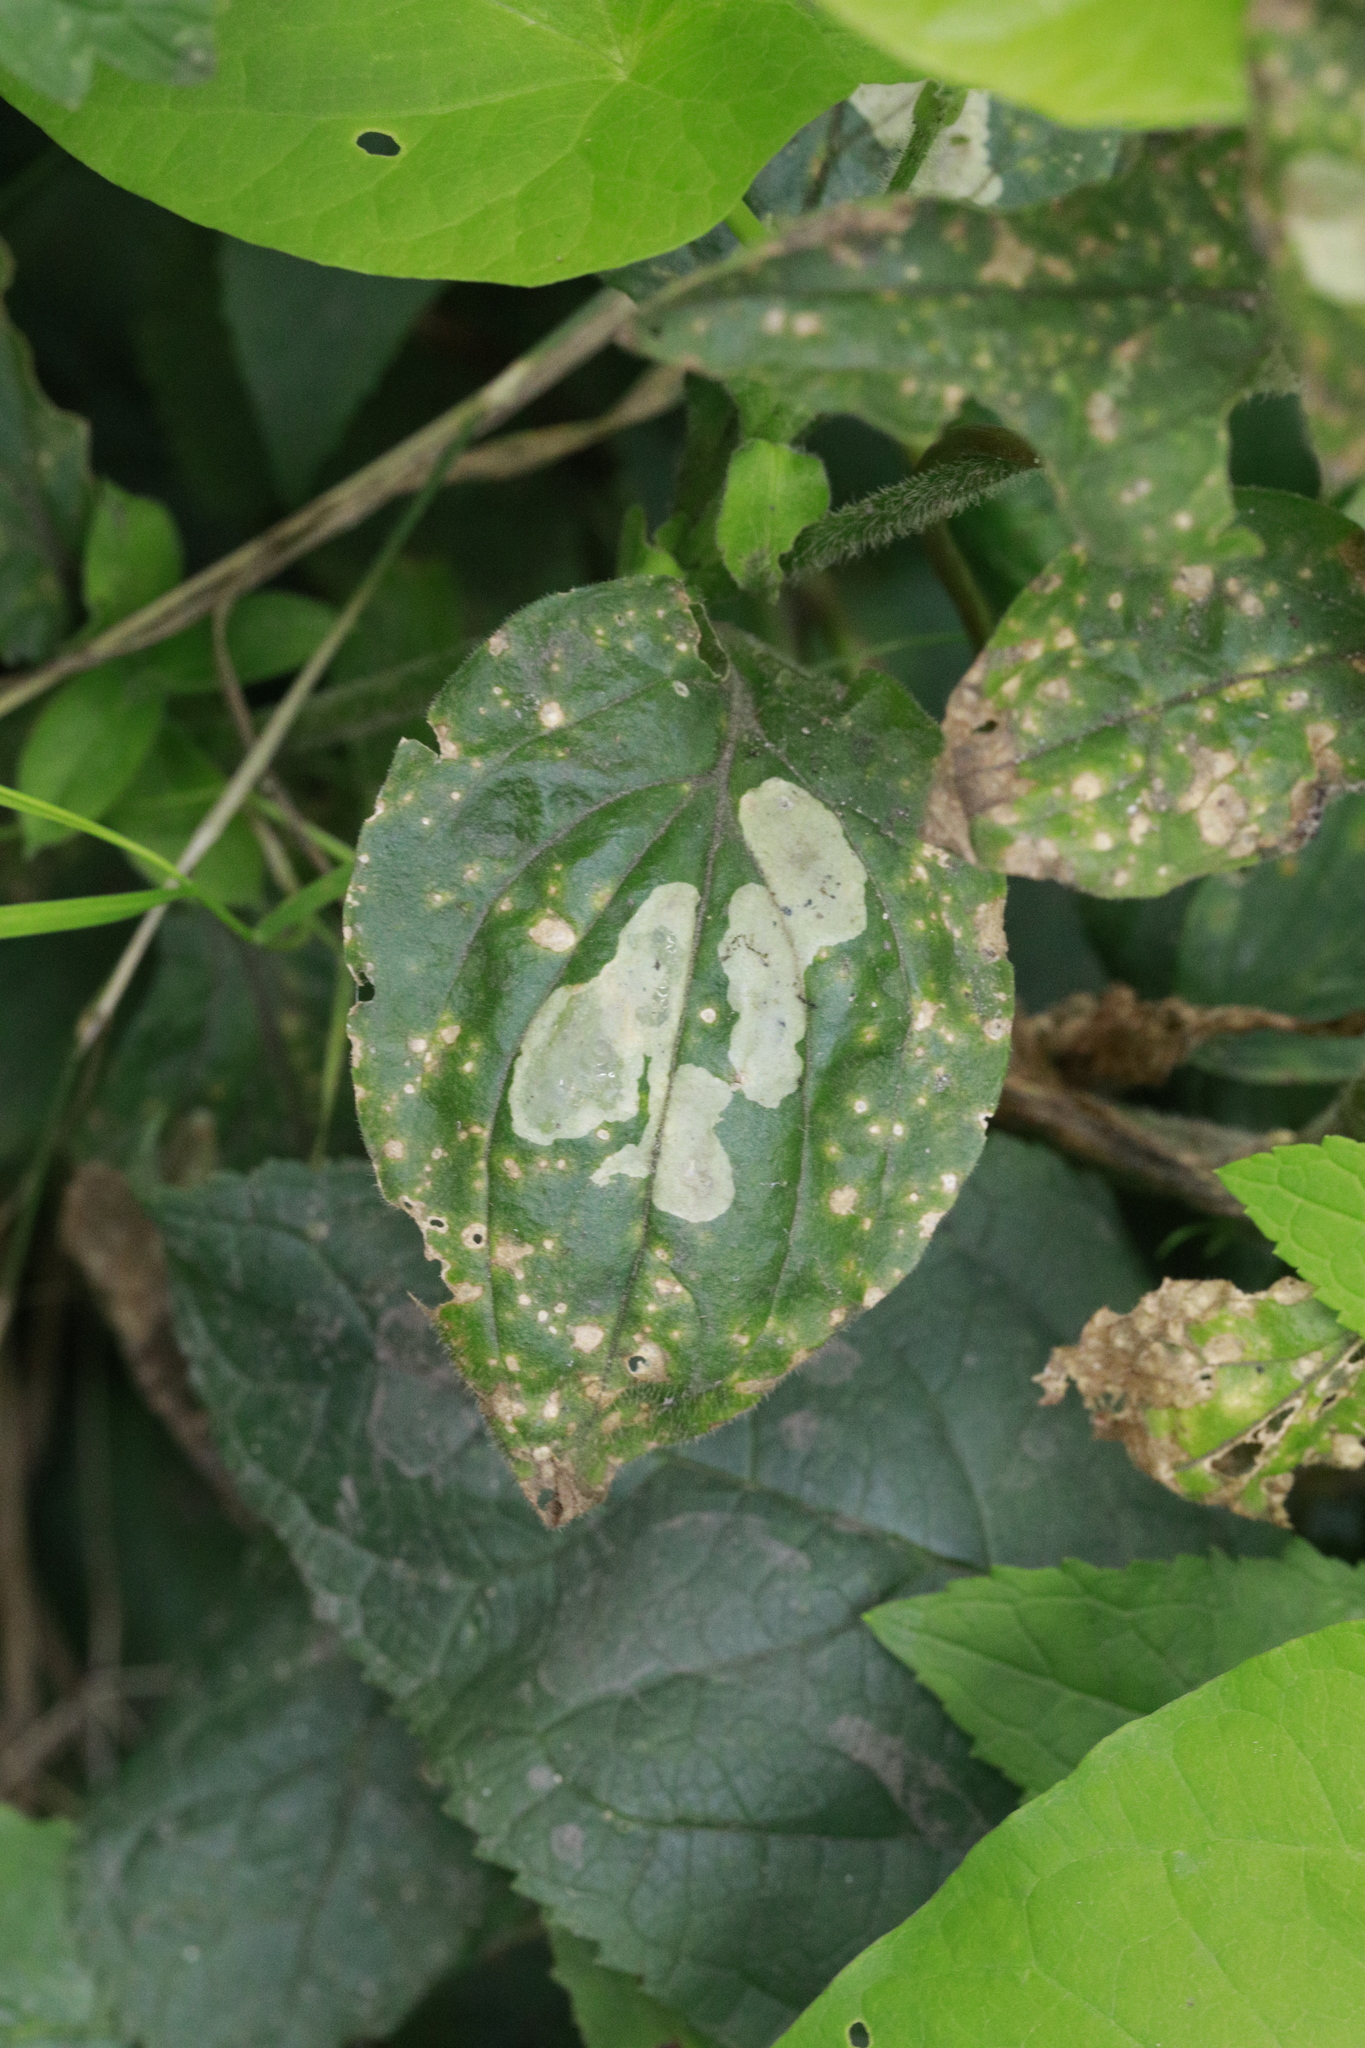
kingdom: Animalia
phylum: Arthropoda
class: Insecta
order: Diptera
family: Agromyzidae
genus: Amauromyza
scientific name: Amauromyza flavifrons
